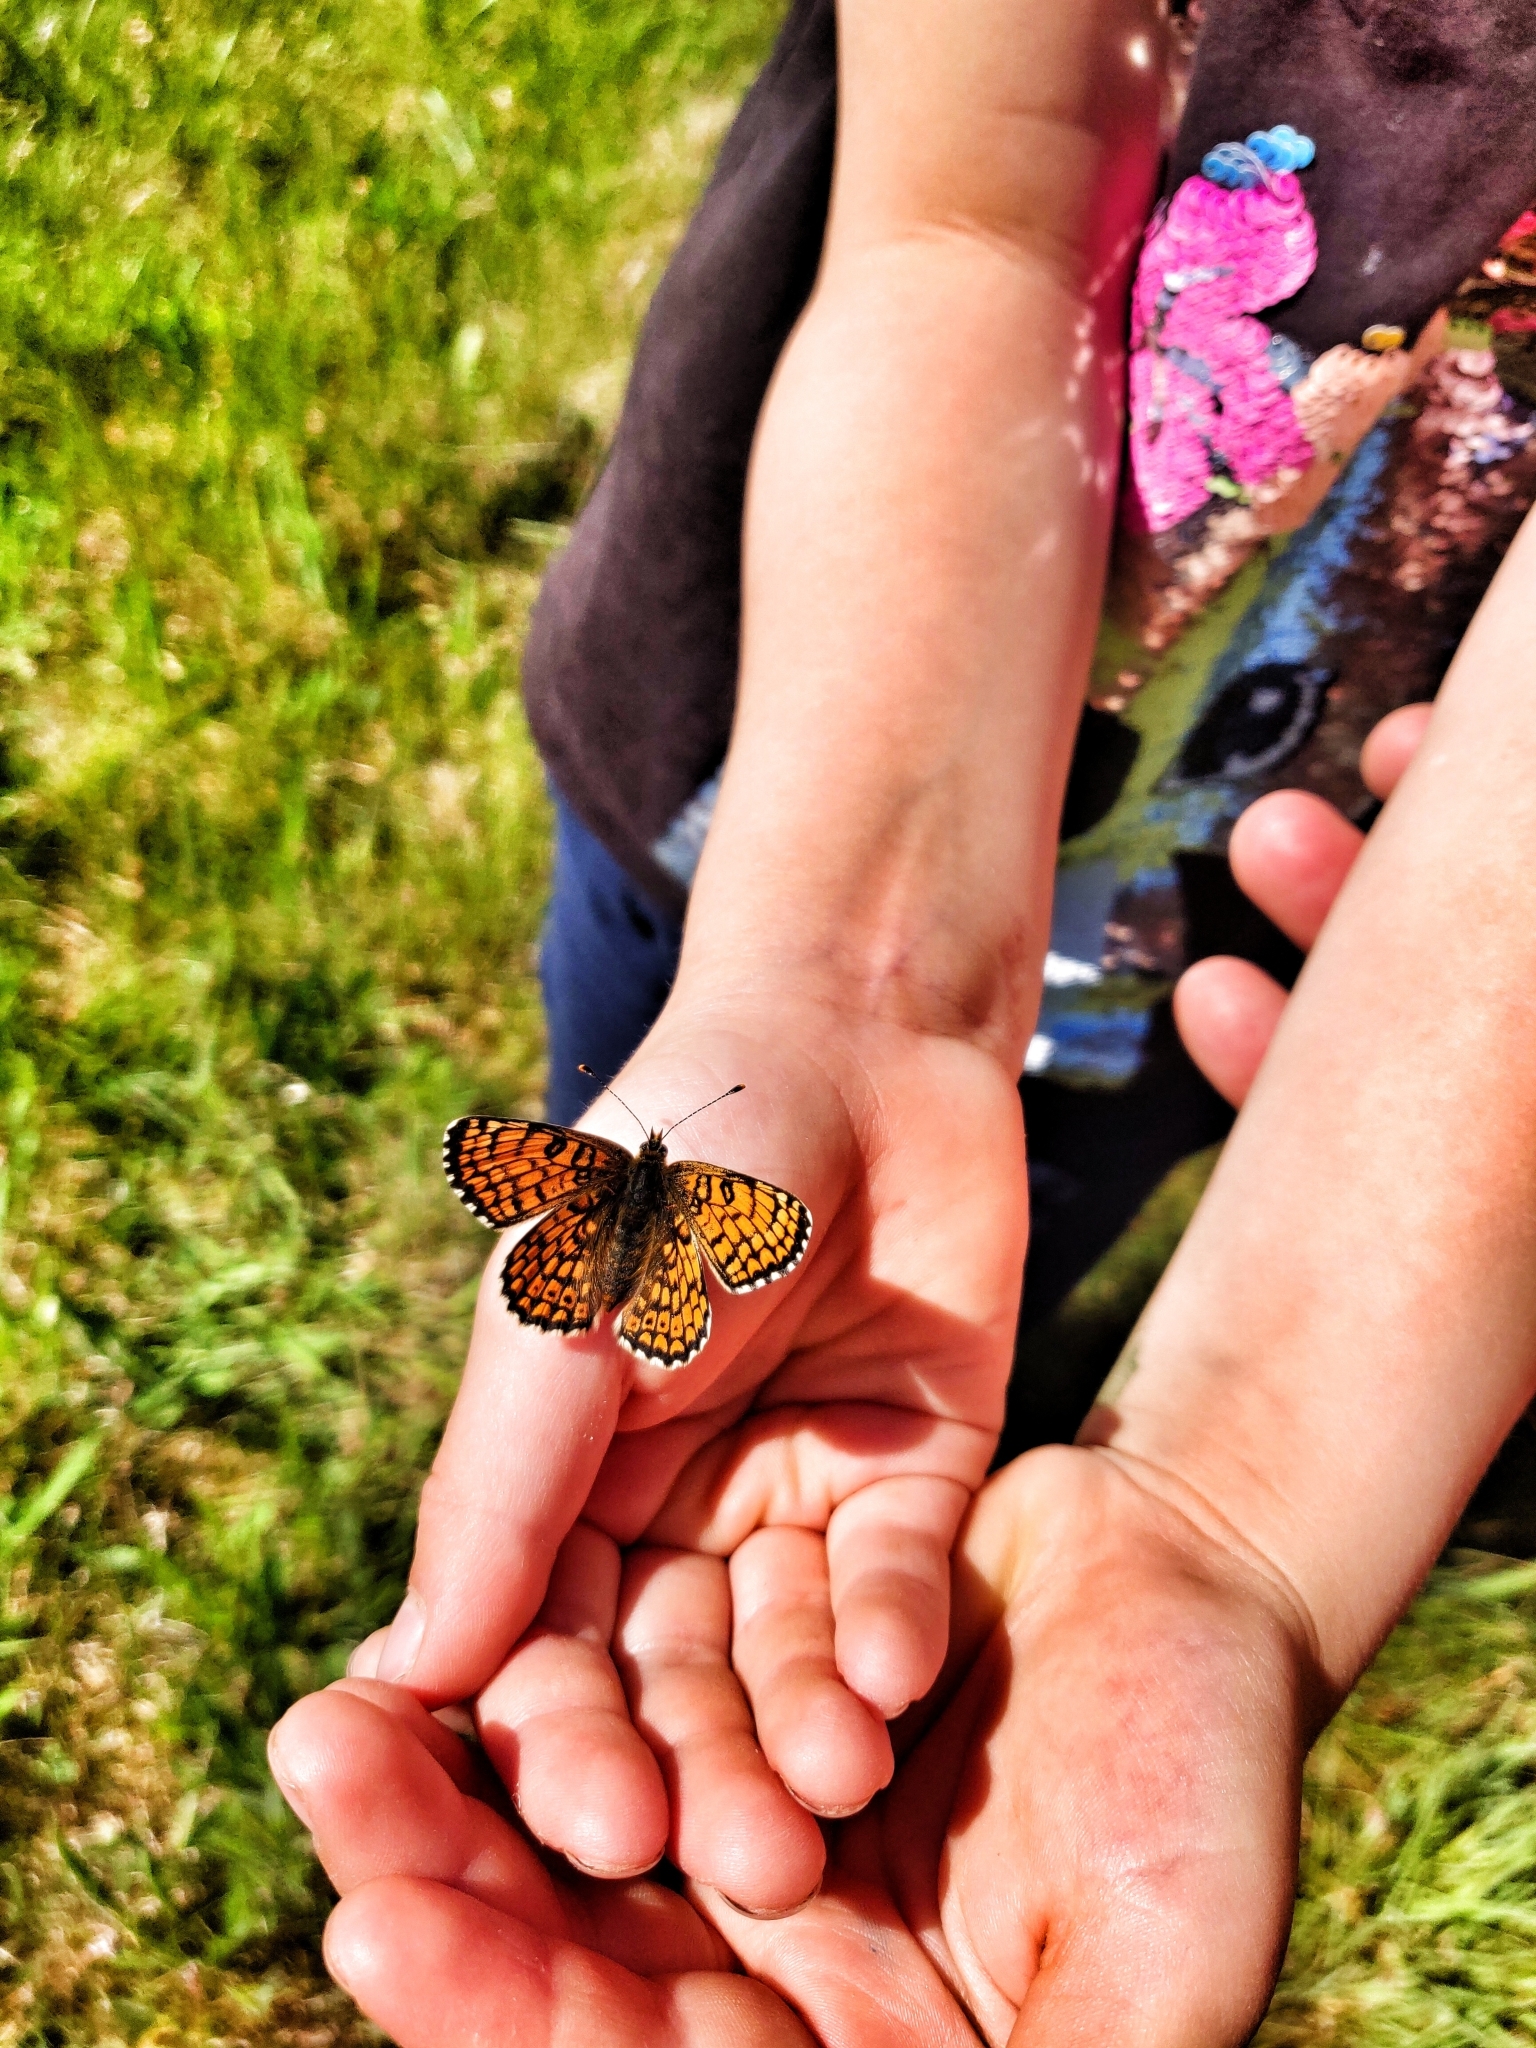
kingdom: Animalia
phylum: Arthropoda
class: Insecta
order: Lepidoptera
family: Nymphalidae
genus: Melitaea
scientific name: Melitaea cinxia
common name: Glanville fritillary
